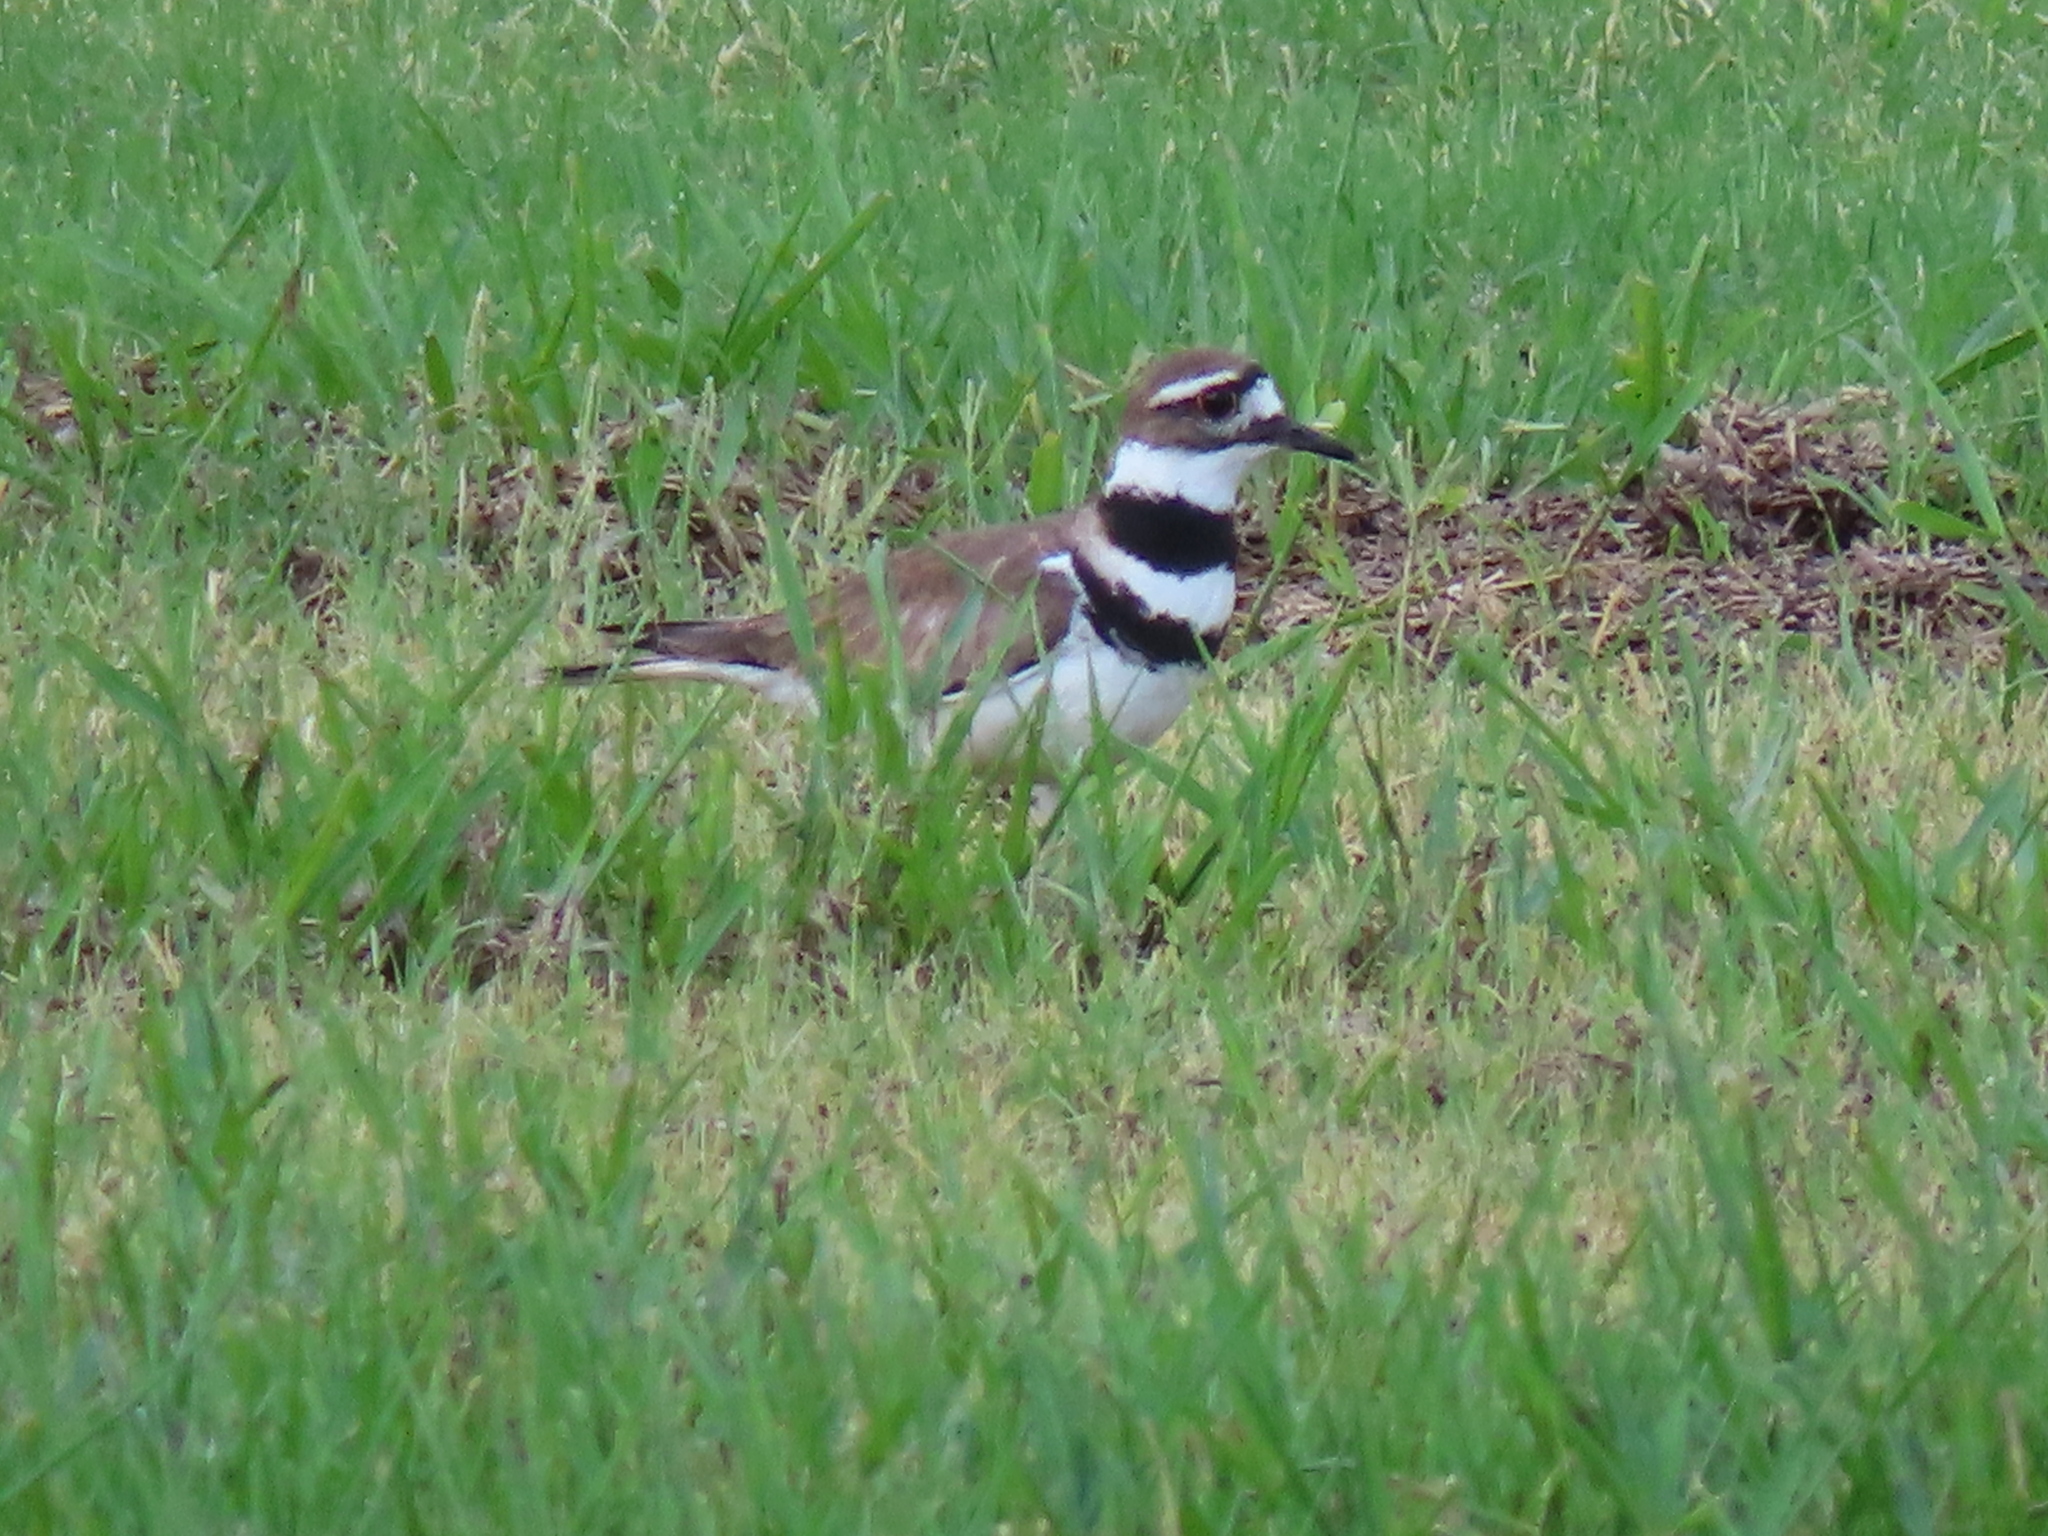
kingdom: Animalia
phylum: Chordata
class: Aves
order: Charadriiformes
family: Charadriidae
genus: Charadrius
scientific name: Charadrius vociferus
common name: Killdeer
